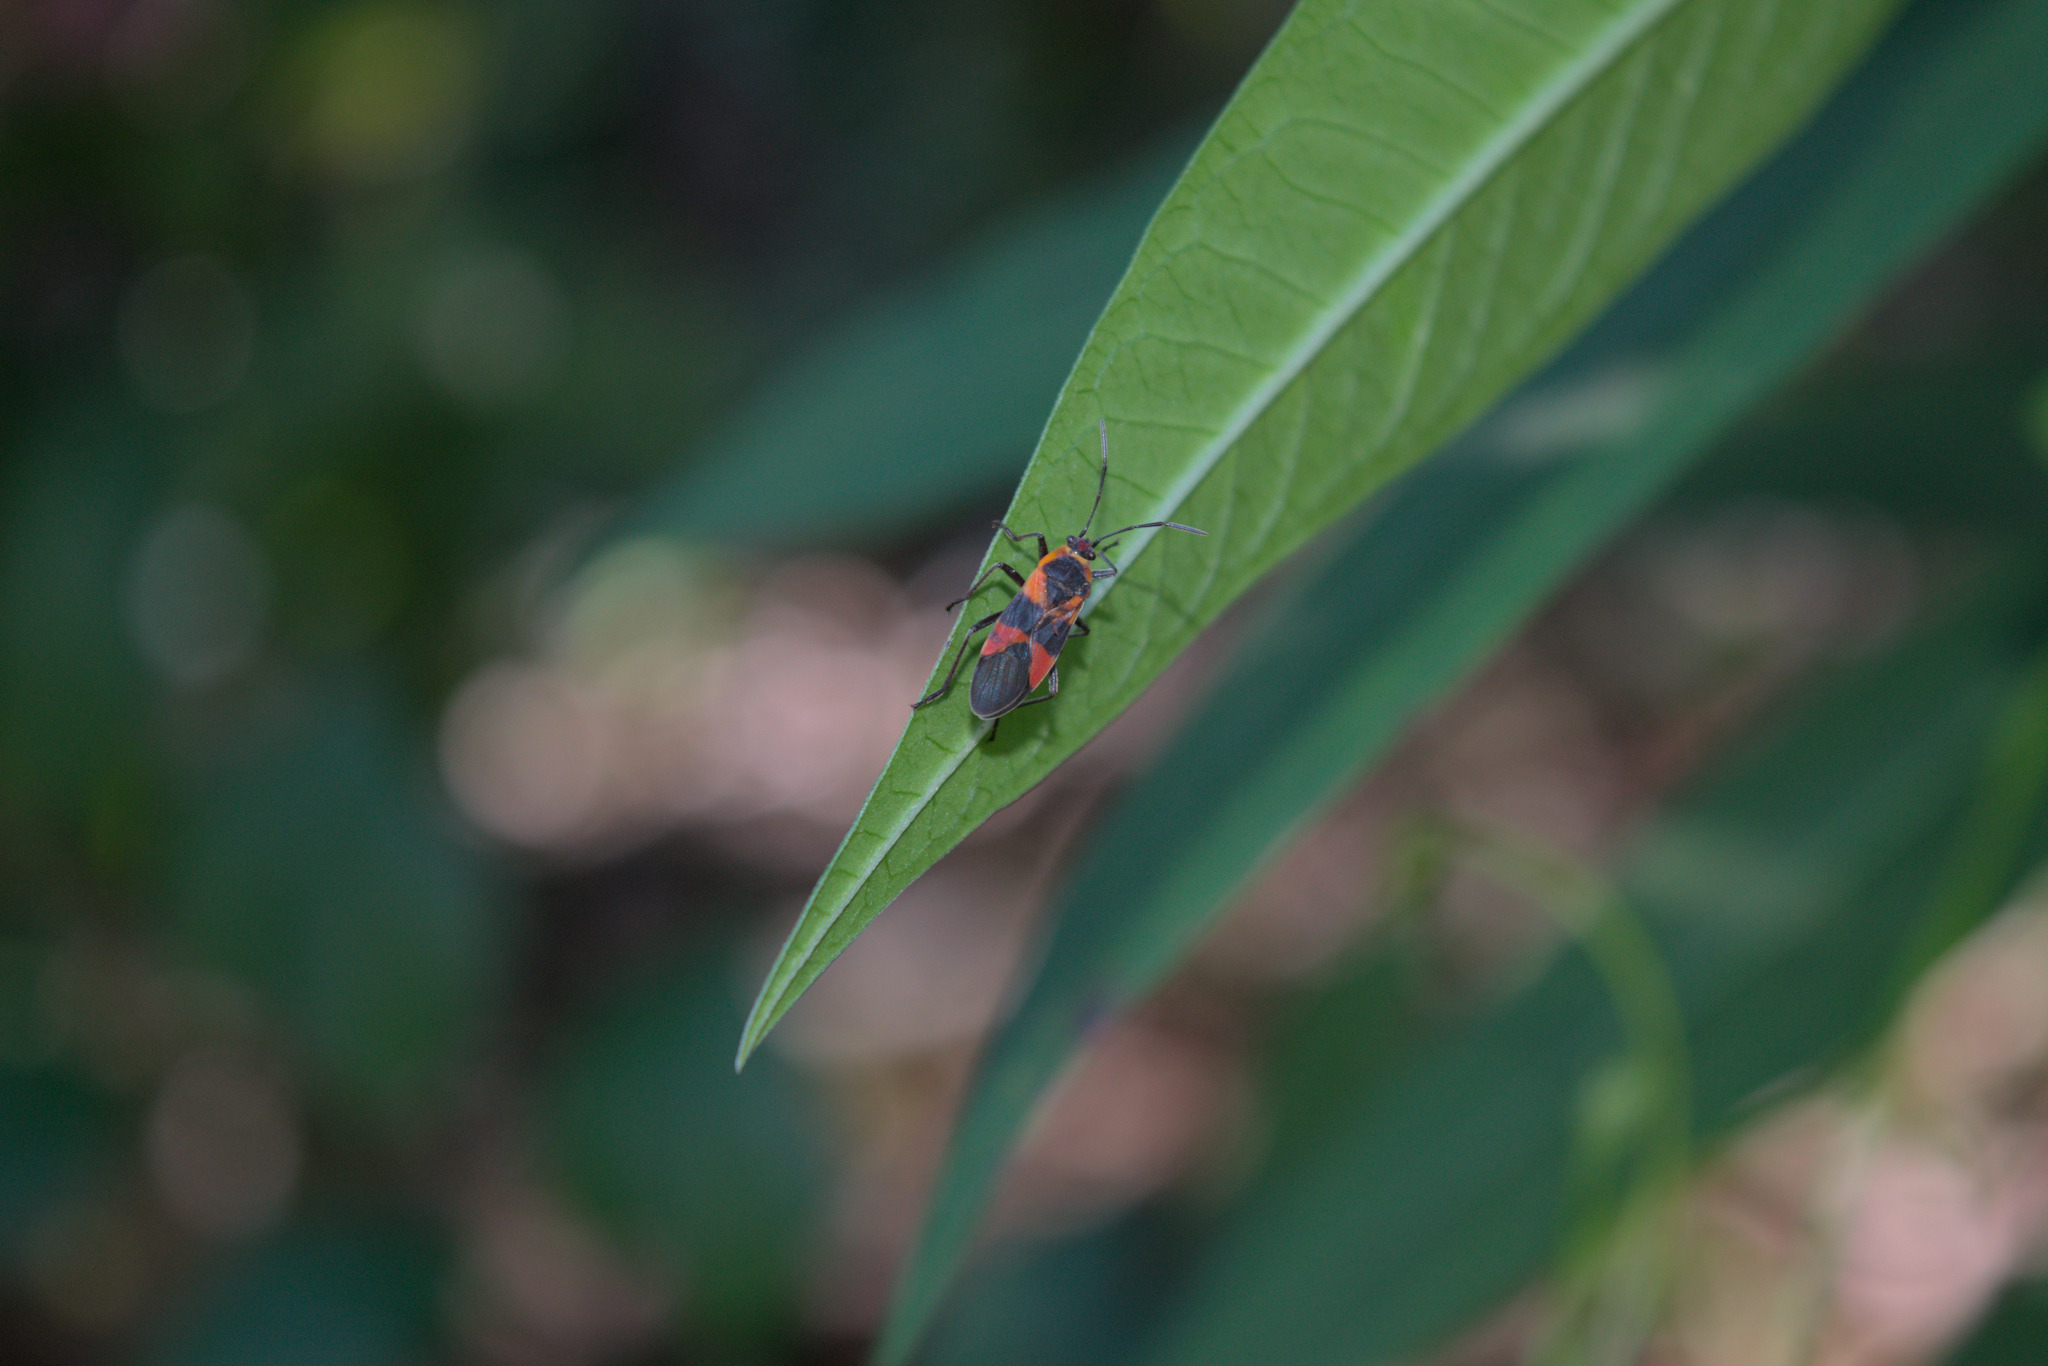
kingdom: Animalia
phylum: Arthropoda
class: Insecta
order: Hemiptera
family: Lygaeidae
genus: Oncopeltus
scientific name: Oncopeltus cingulifer
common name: Lygaeid bug
